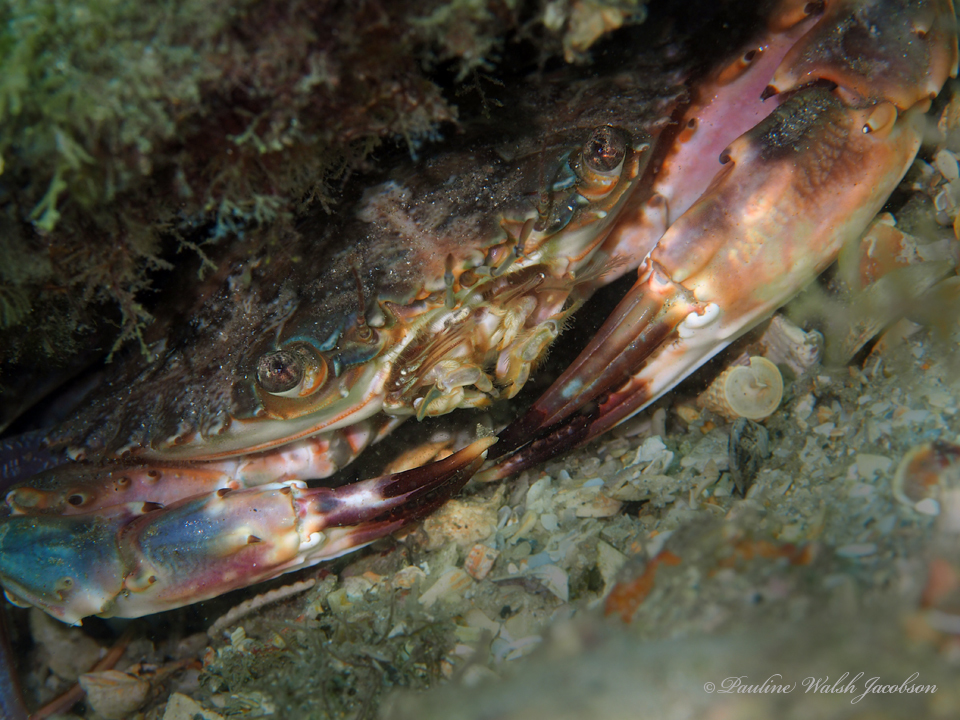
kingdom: Animalia
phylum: Arthropoda
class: Malacostraca
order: Decapoda
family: Portunidae
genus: Charybdis
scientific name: Charybdis hellerii
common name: Spiny hands
